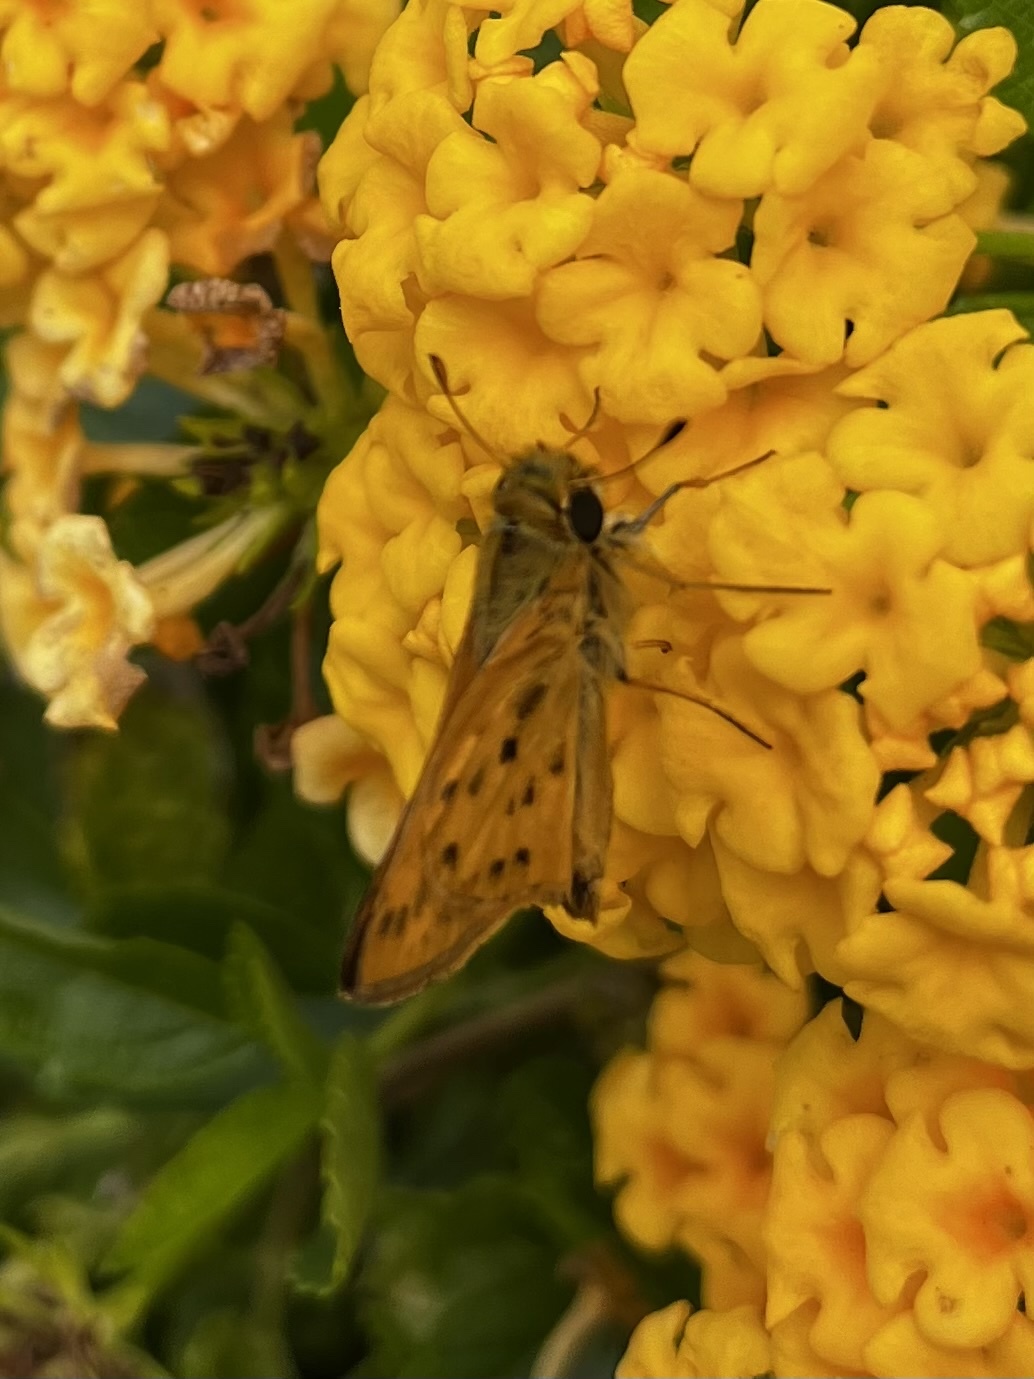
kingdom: Animalia
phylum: Arthropoda
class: Insecta
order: Lepidoptera
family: Hesperiidae
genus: Hylephila
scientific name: Hylephila phyleus
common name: Fiery skipper
